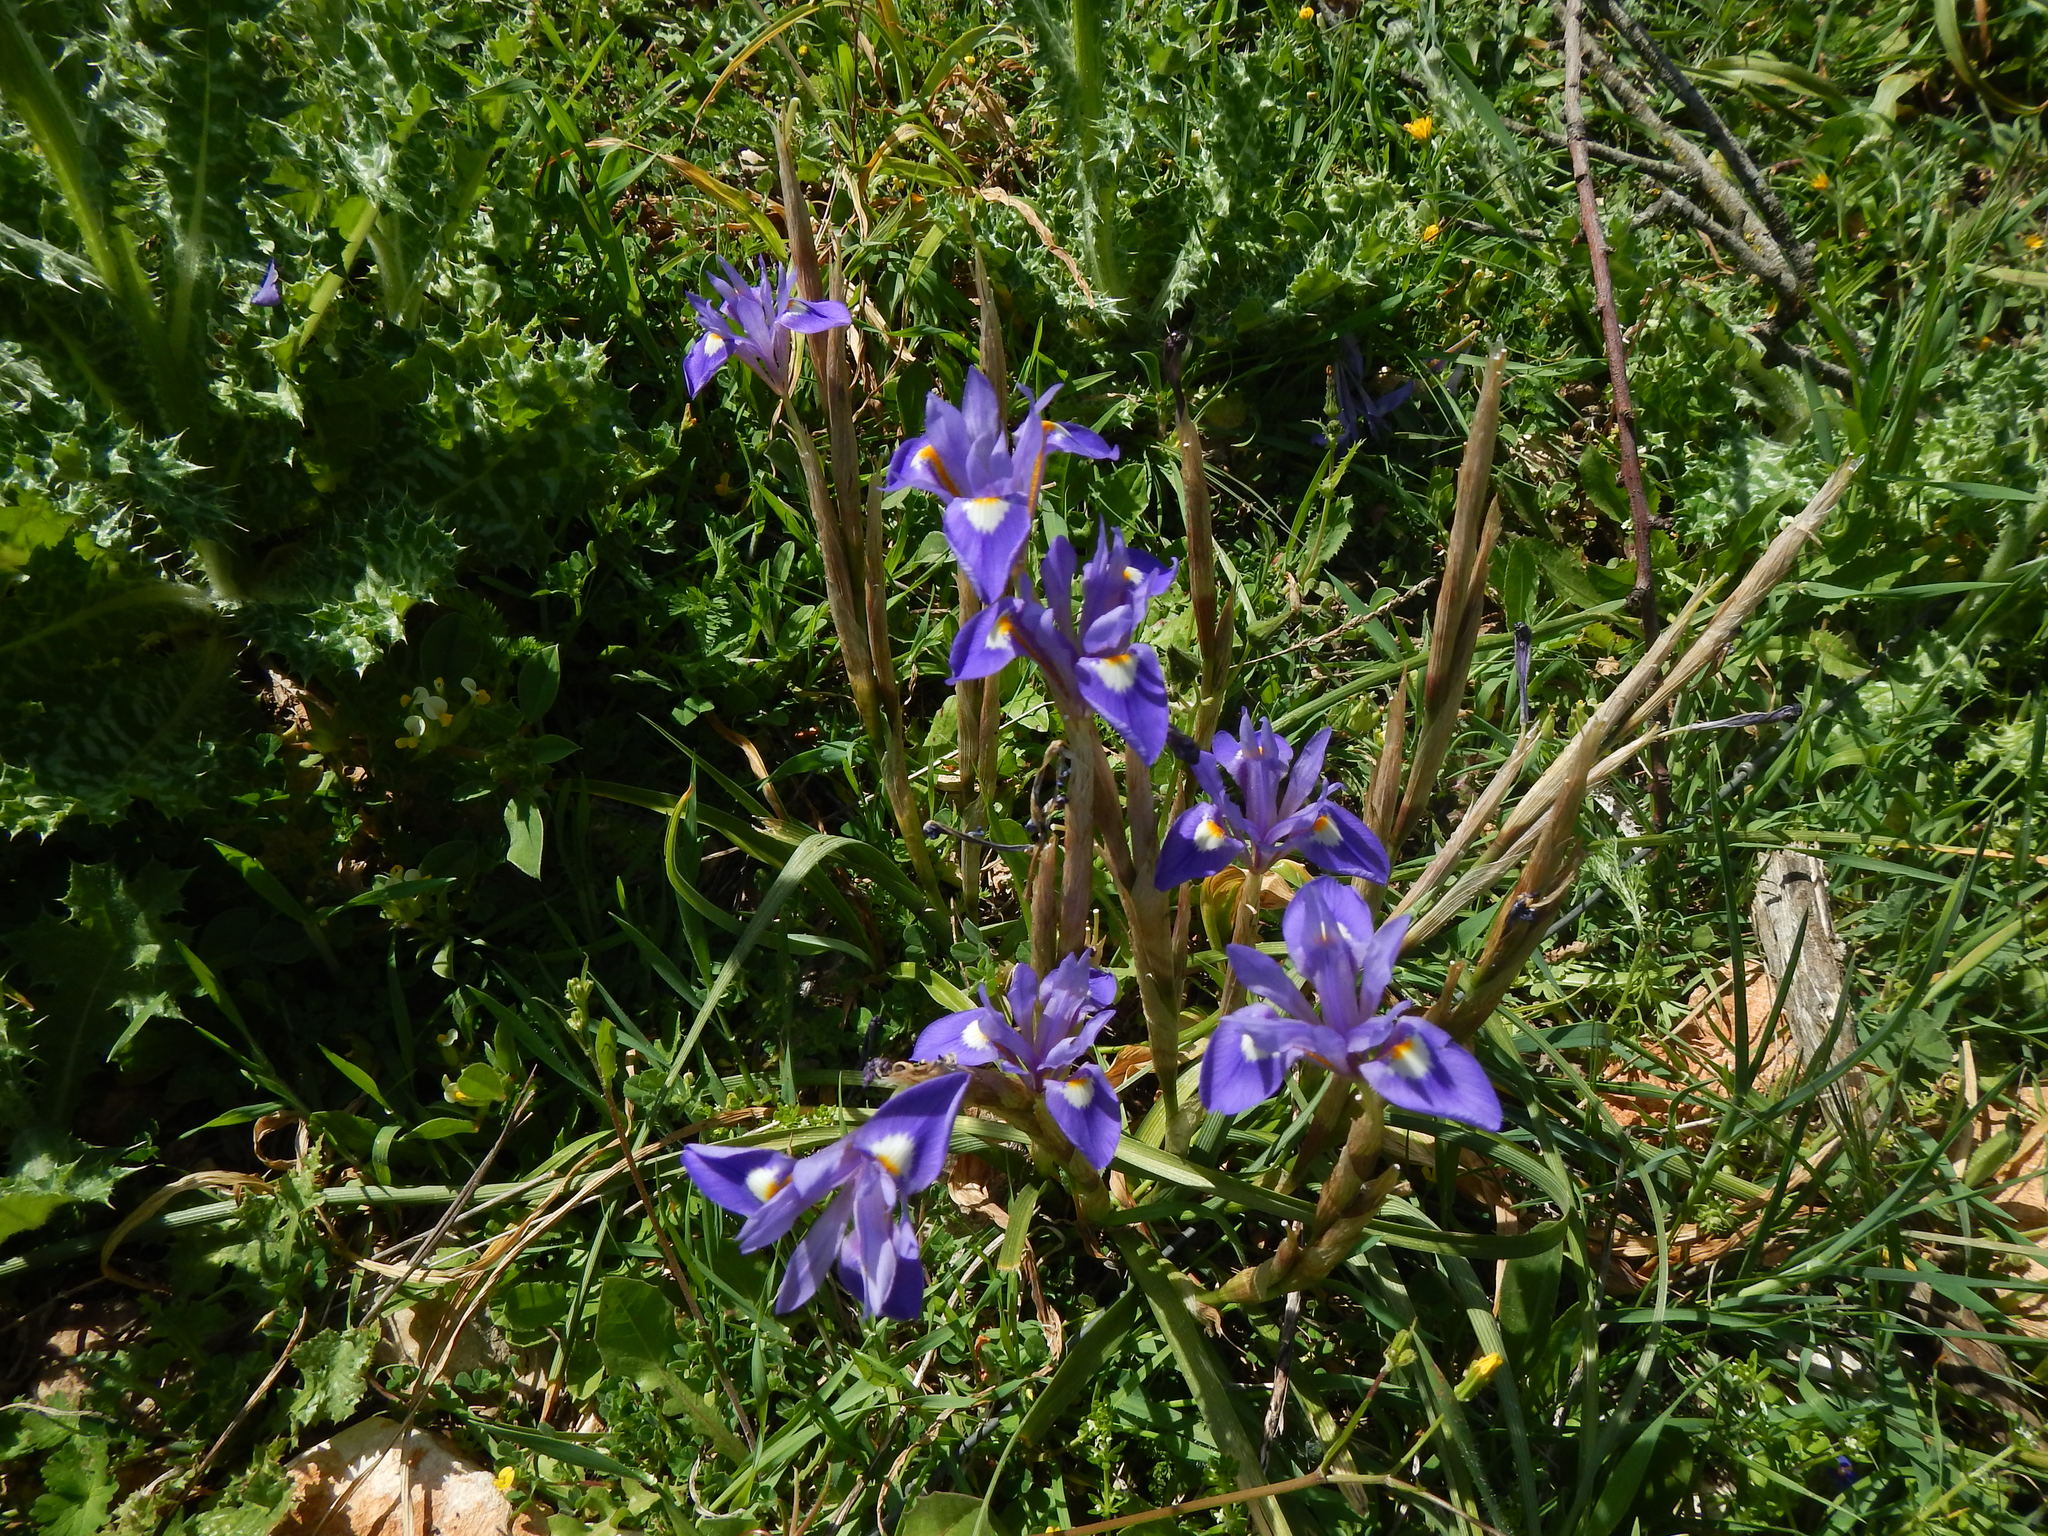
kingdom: Plantae
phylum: Tracheophyta
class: Liliopsida
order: Asparagales
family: Iridaceae
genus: Moraea
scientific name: Moraea sisyrinchium
